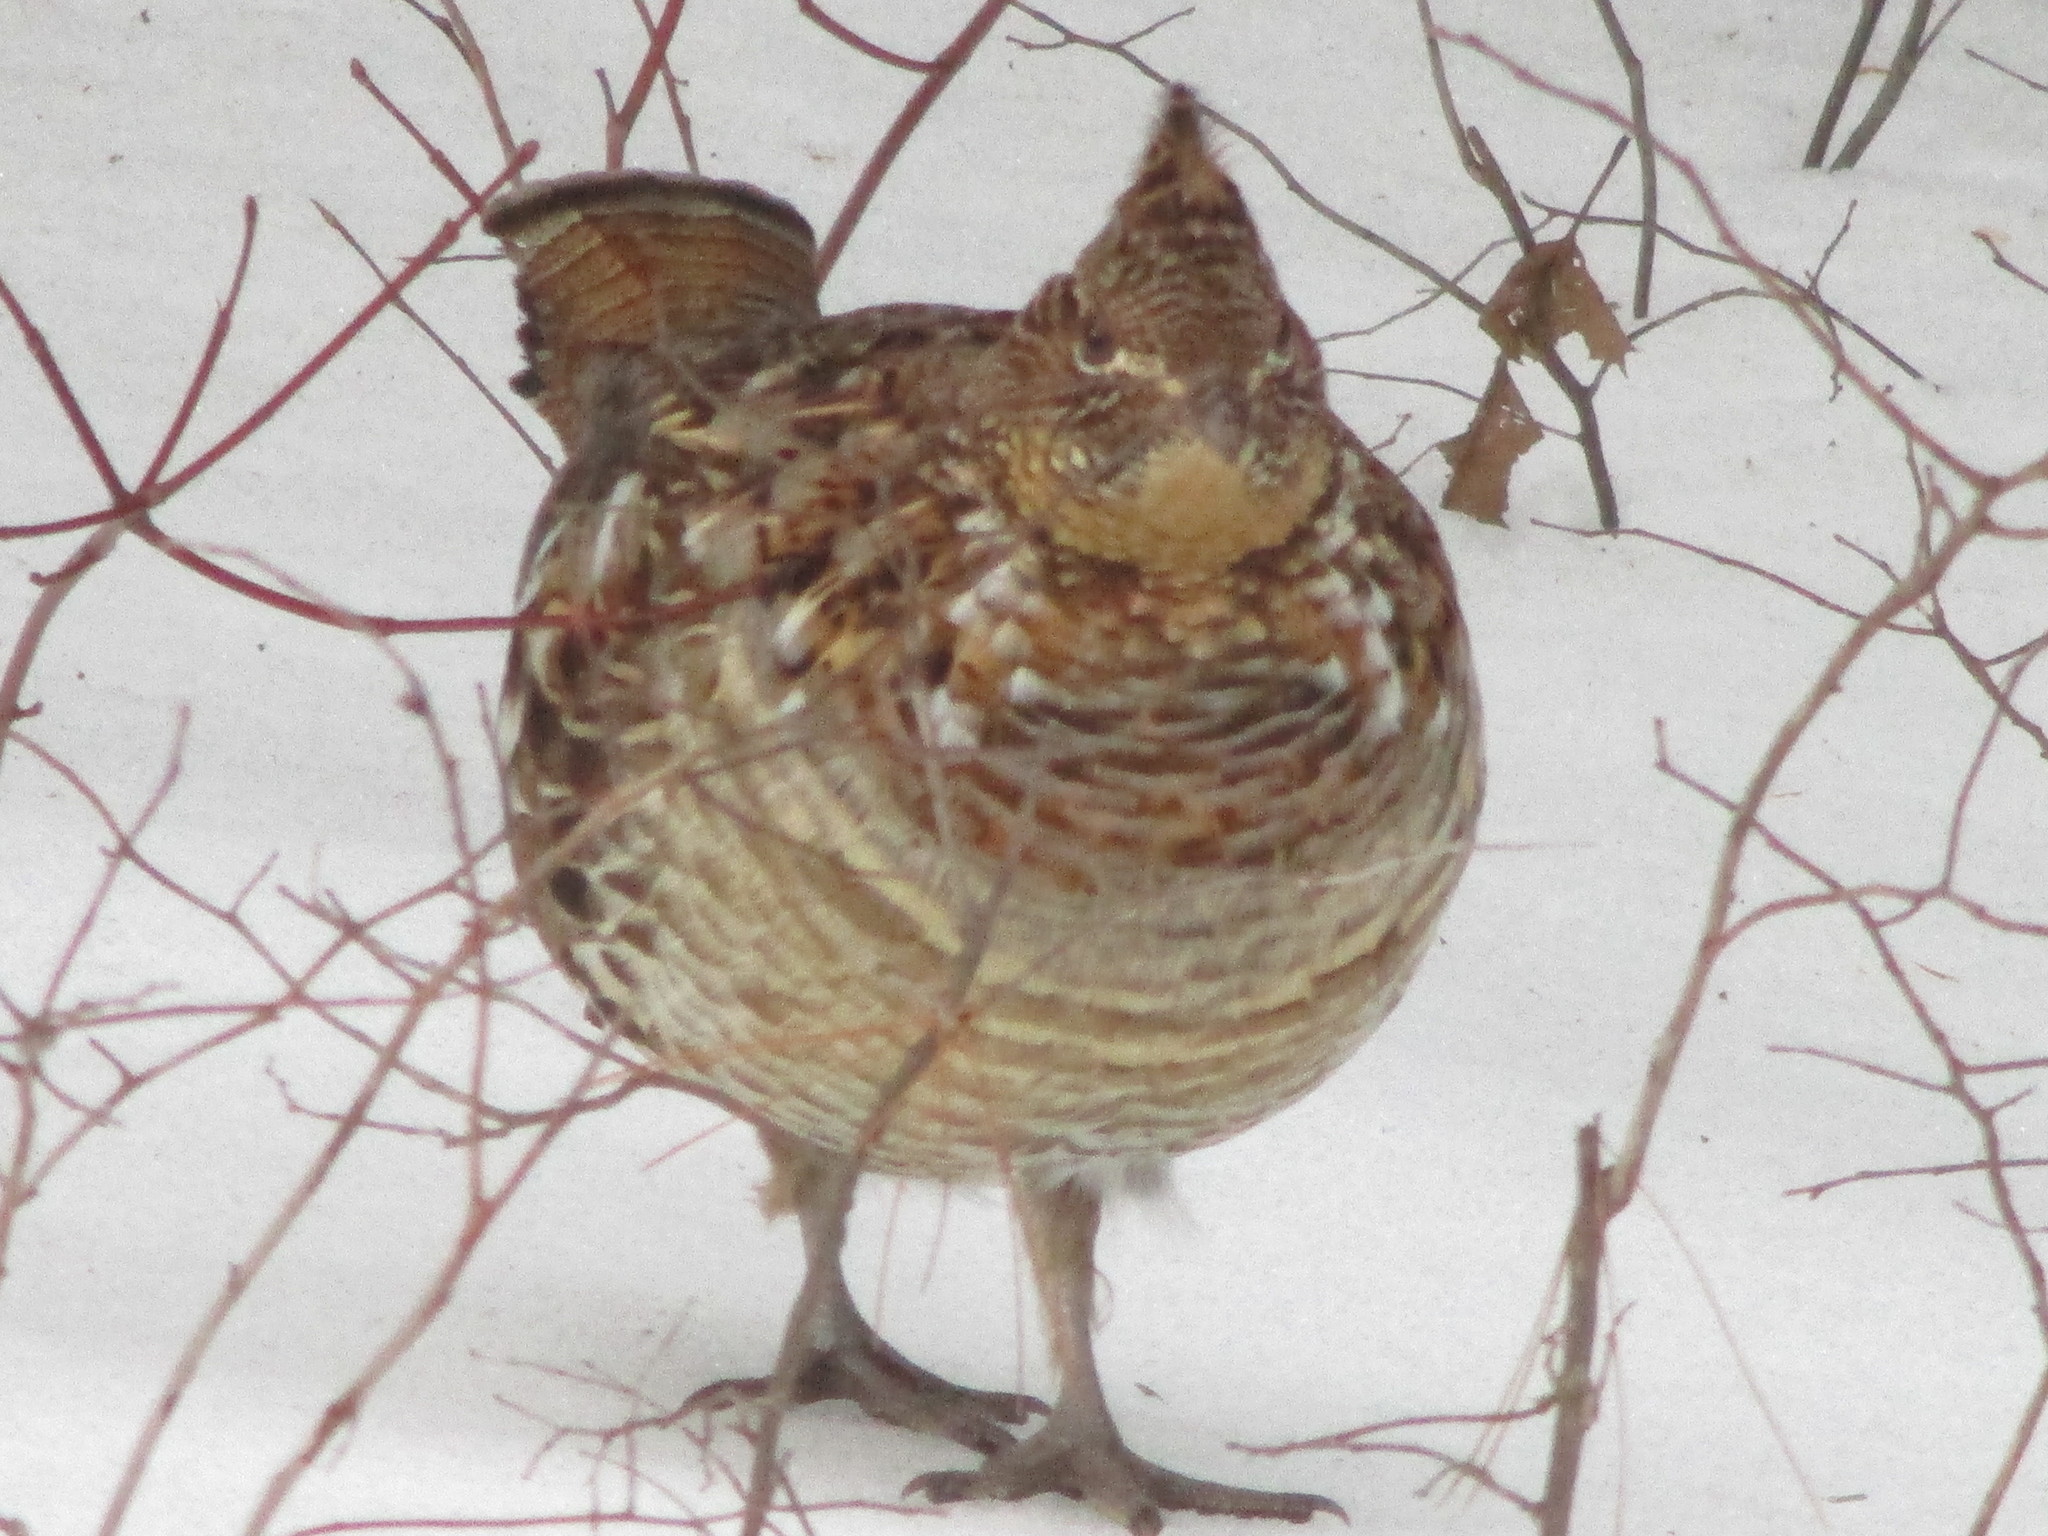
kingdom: Animalia
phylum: Chordata
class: Aves
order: Galliformes
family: Phasianidae
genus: Bonasa
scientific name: Bonasa umbellus
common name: Ruffed grouse
